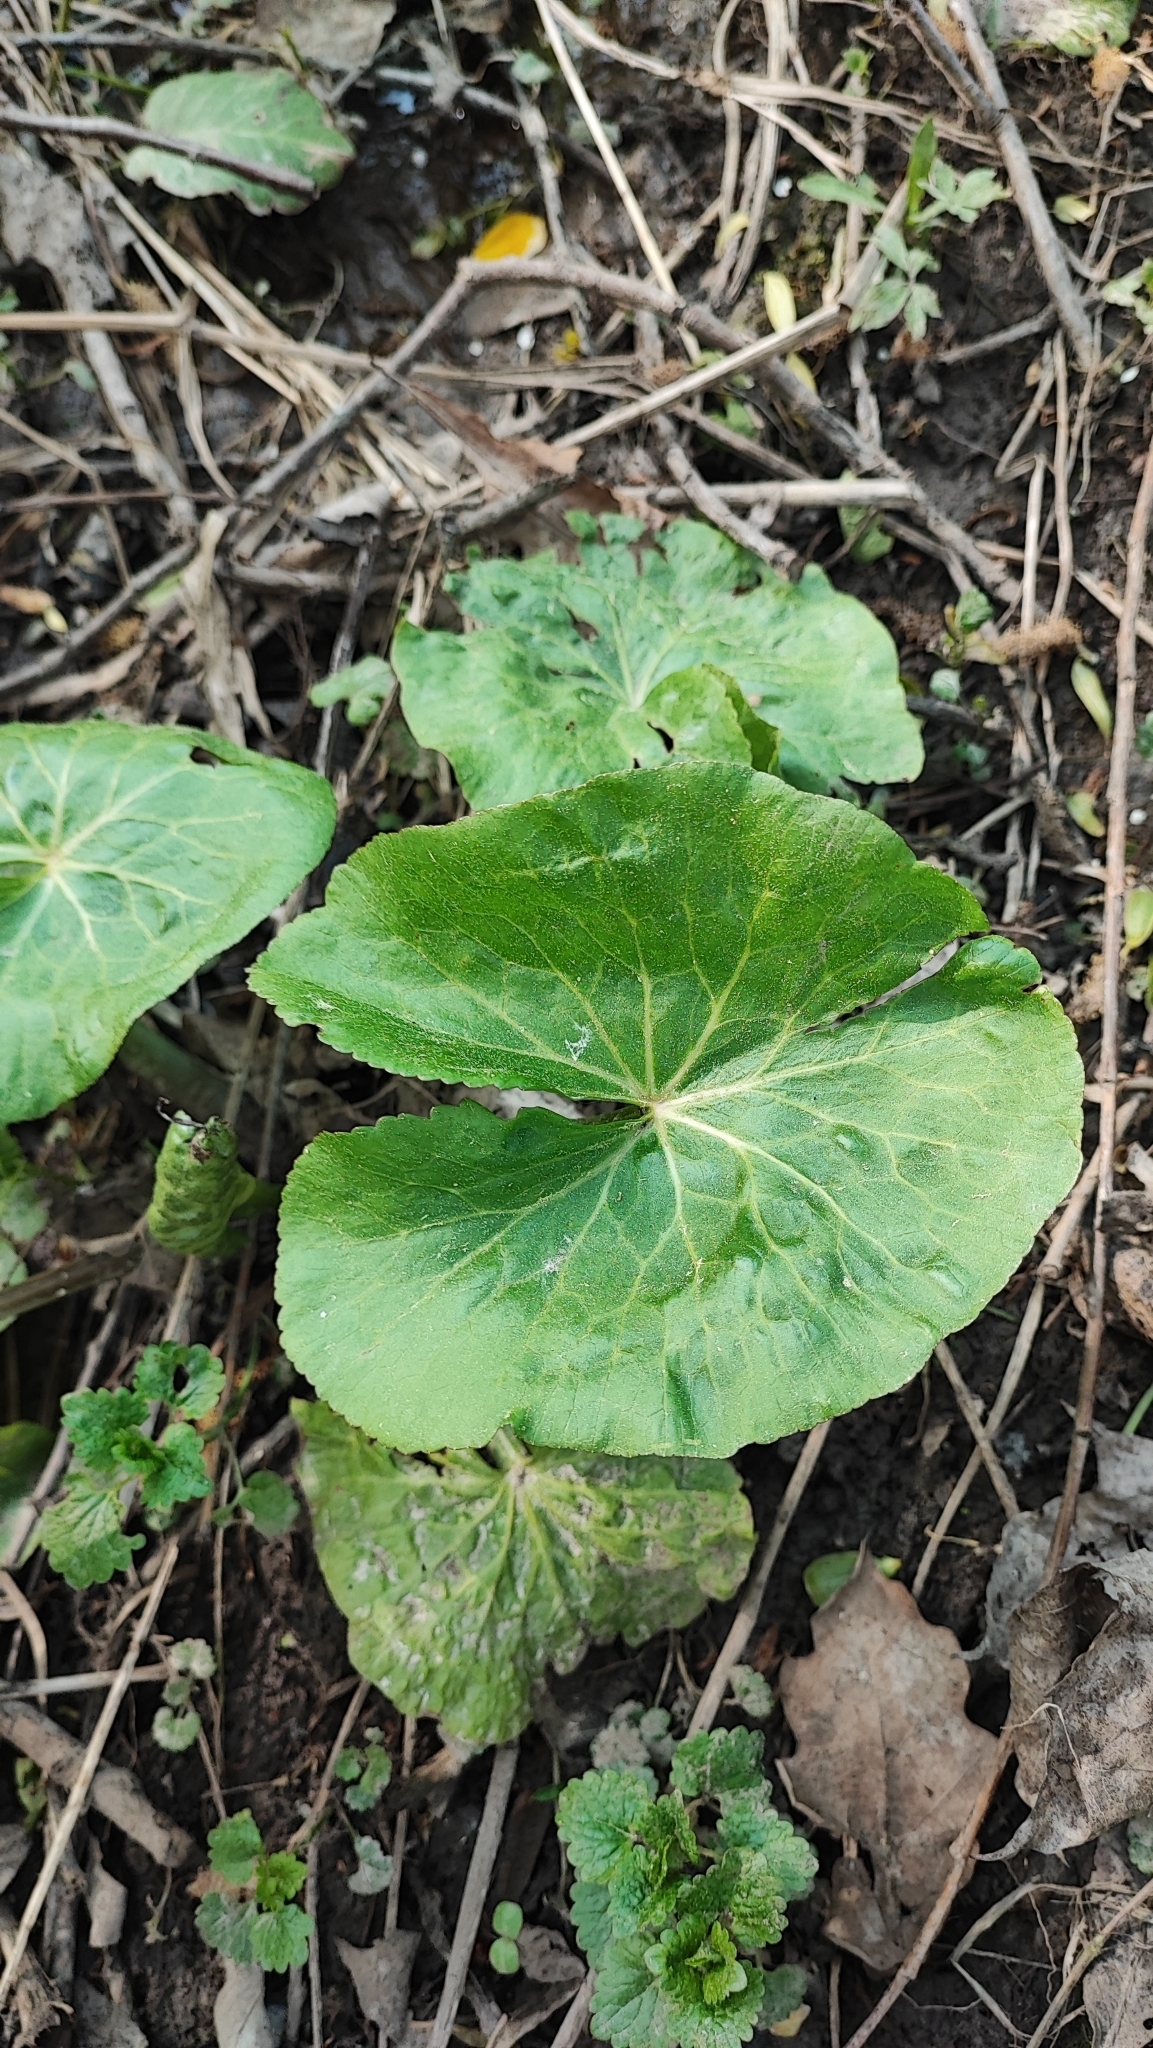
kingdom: Plantae
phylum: Tracheophyta
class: Magnoliopsida
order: Ranunculales
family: Ranunculaceae
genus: Caltha
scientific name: Caltha palustris
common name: Marsh marigold
